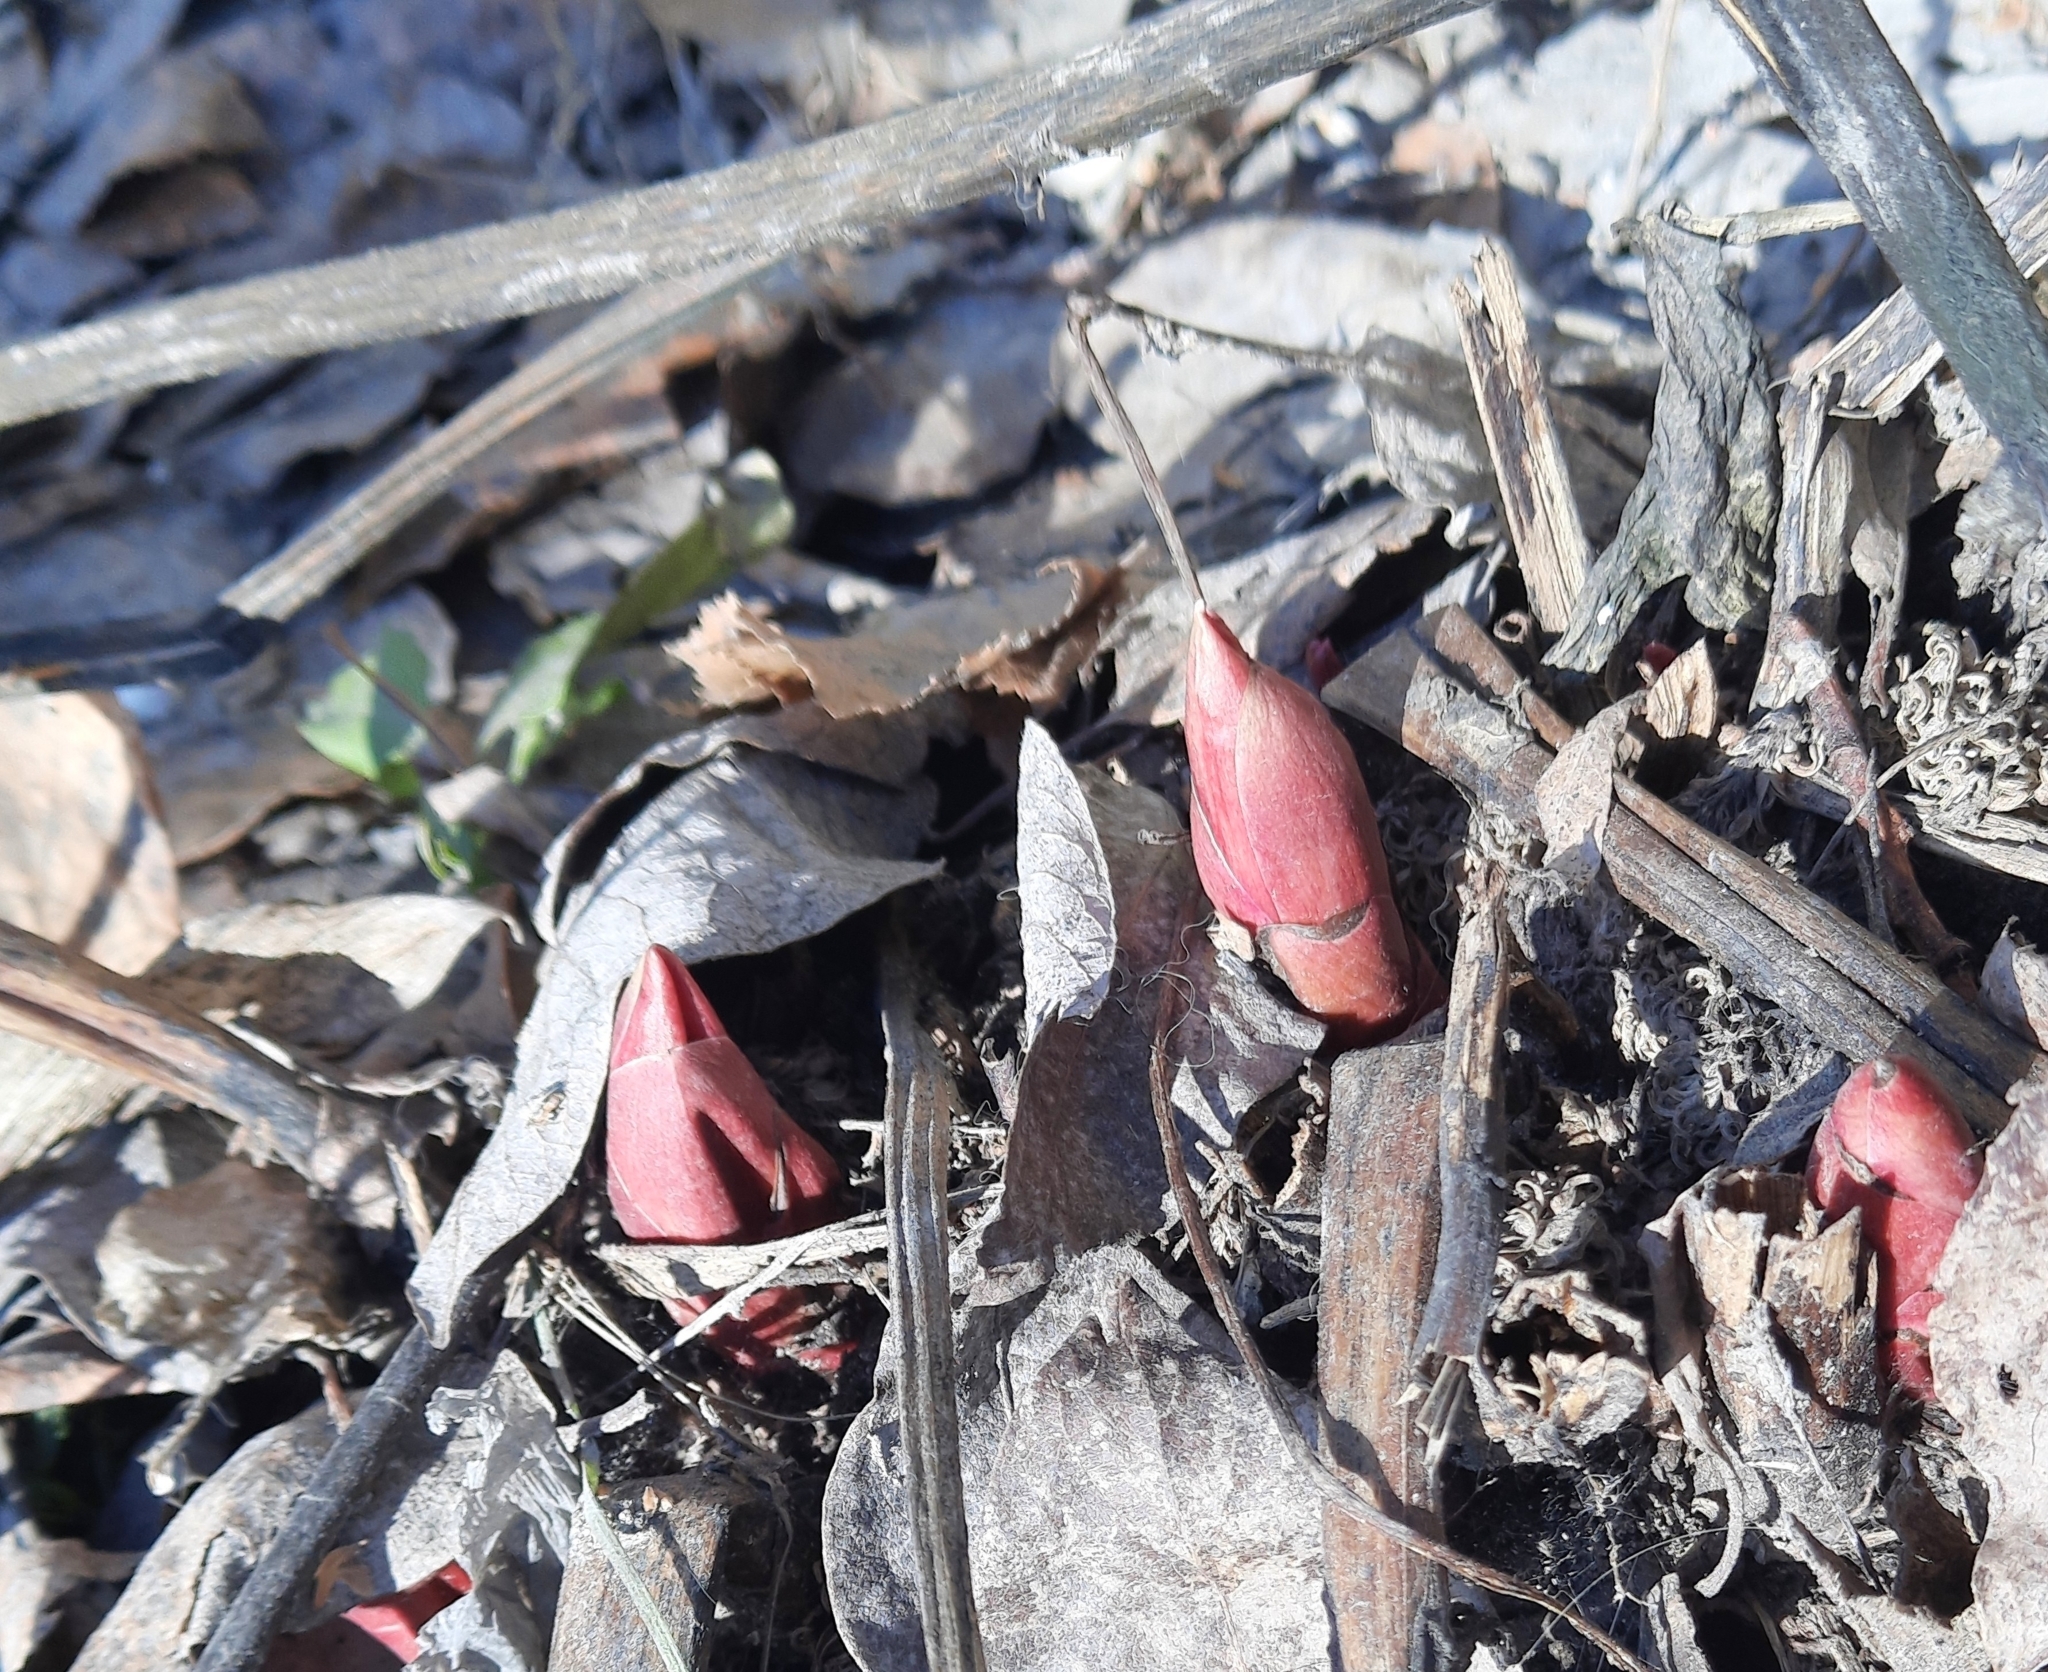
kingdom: Plantae
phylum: Tracheophyta
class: Magnoliopsida
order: Saxifragales
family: Paeoniaceae
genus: Paeonia
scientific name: Paeonia anomala
